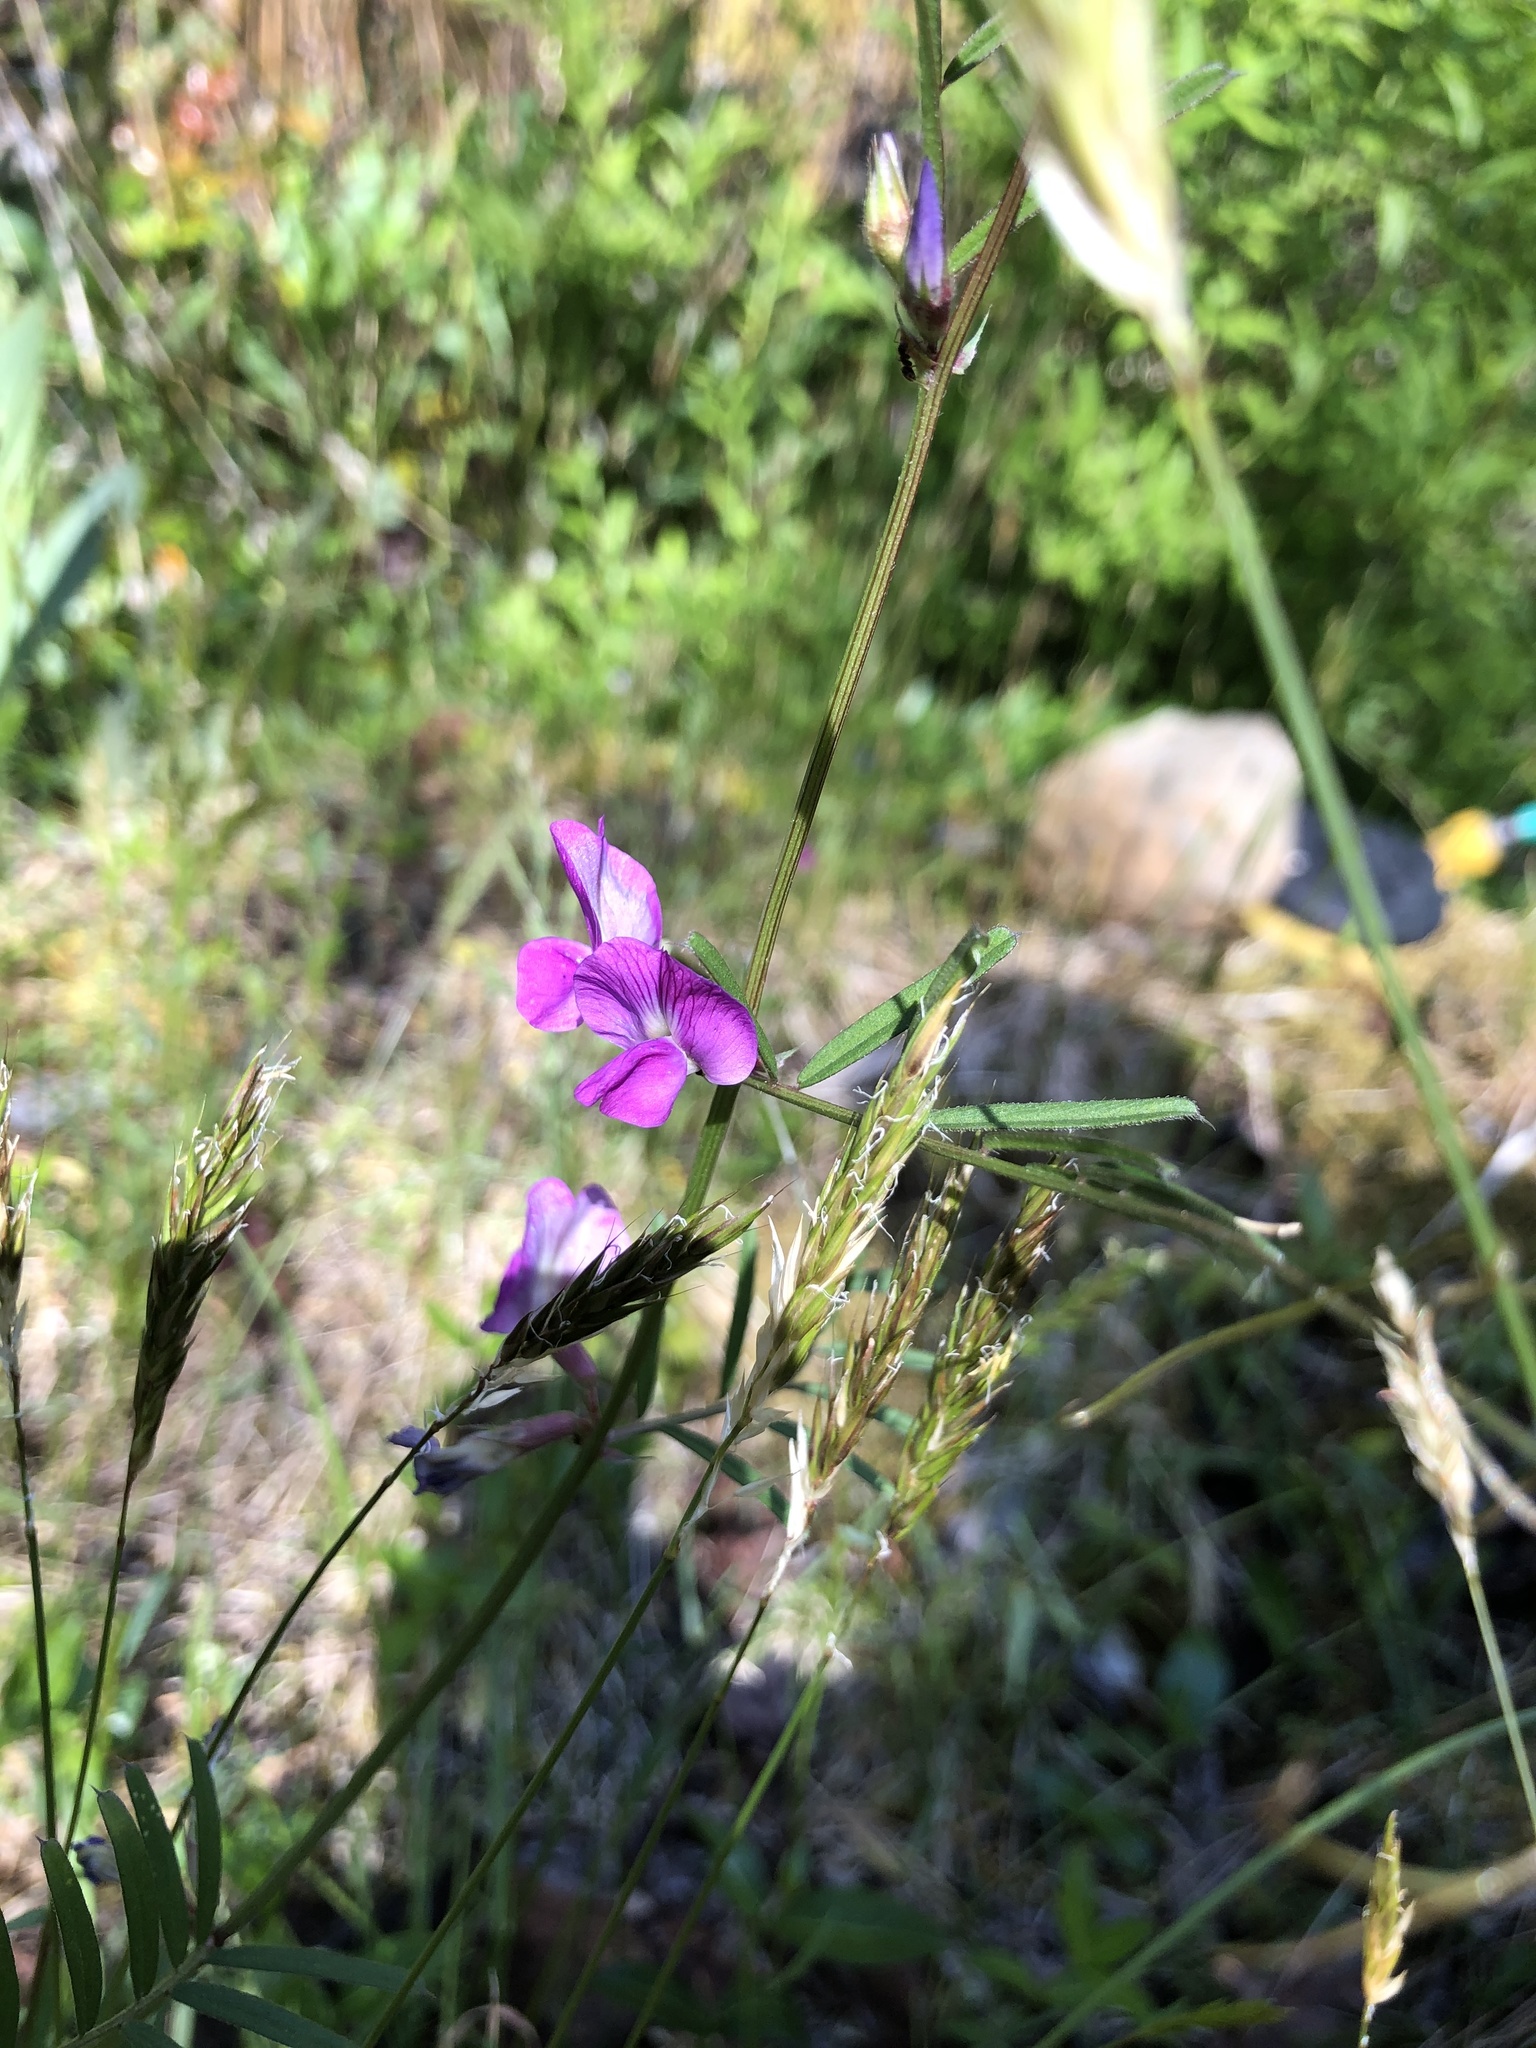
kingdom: Plantae
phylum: Tracheophyta
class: Magnoliopsida
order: Fabales
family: Fabaceae
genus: Vicia
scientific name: Vicia sativa
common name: Garden vetch
